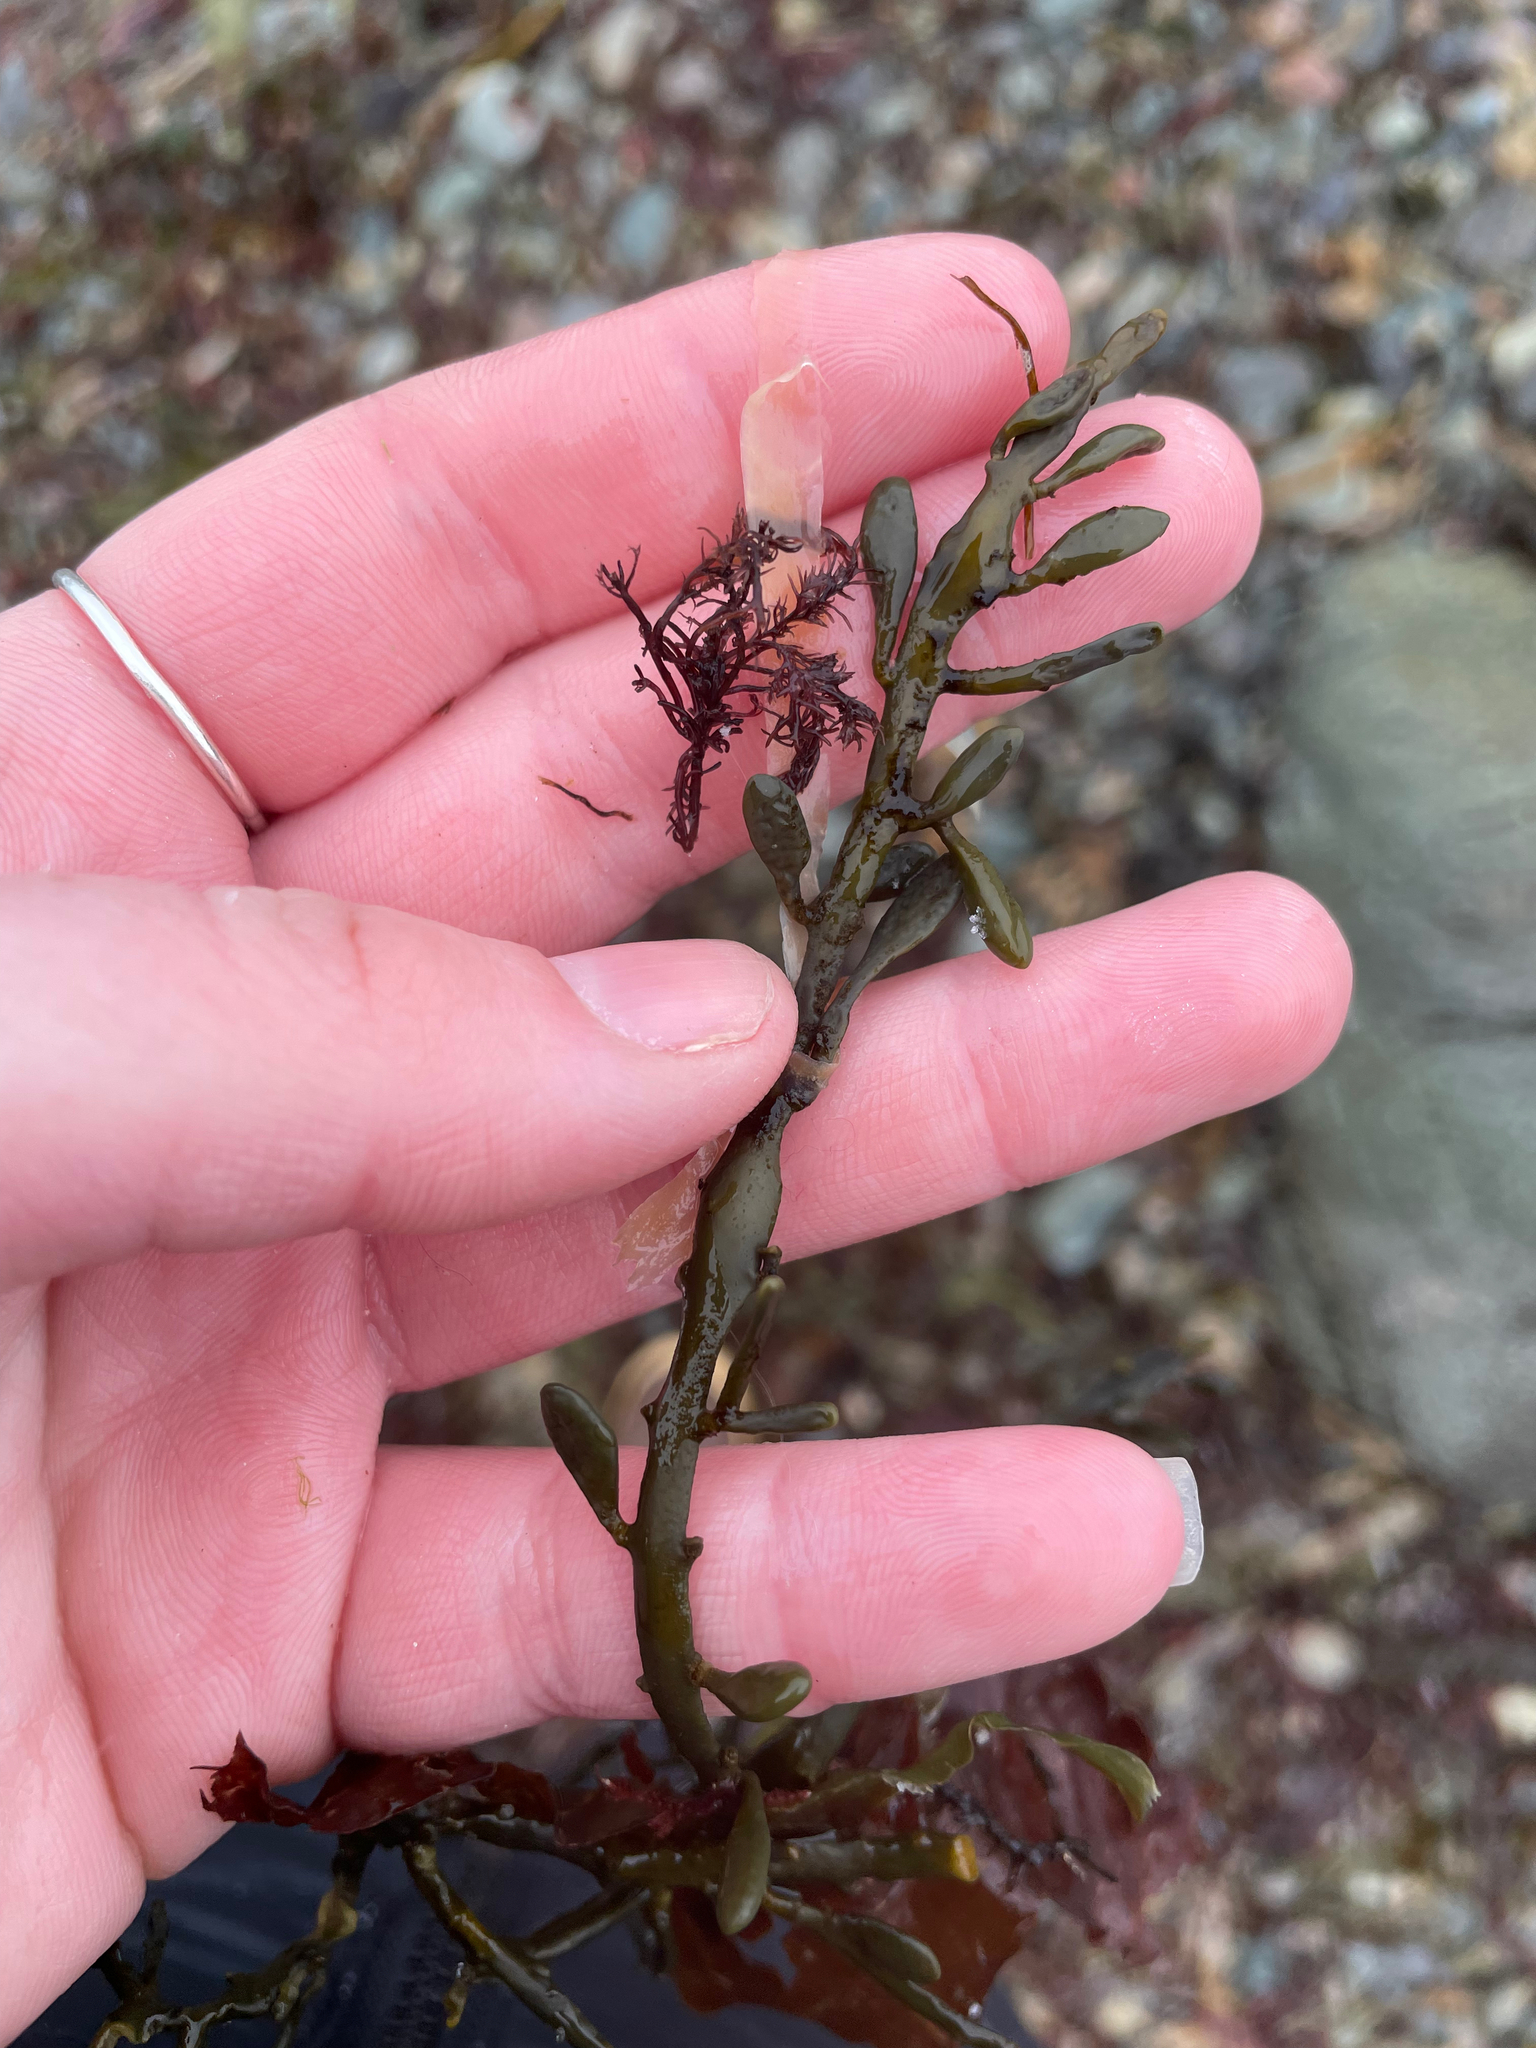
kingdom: Chromista
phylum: Ochrophyta
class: Phaeophyceae
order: Fucales
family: Fucaceae
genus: Ascophyllum
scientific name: Ascophyllum nodosum
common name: Knotted wrack
